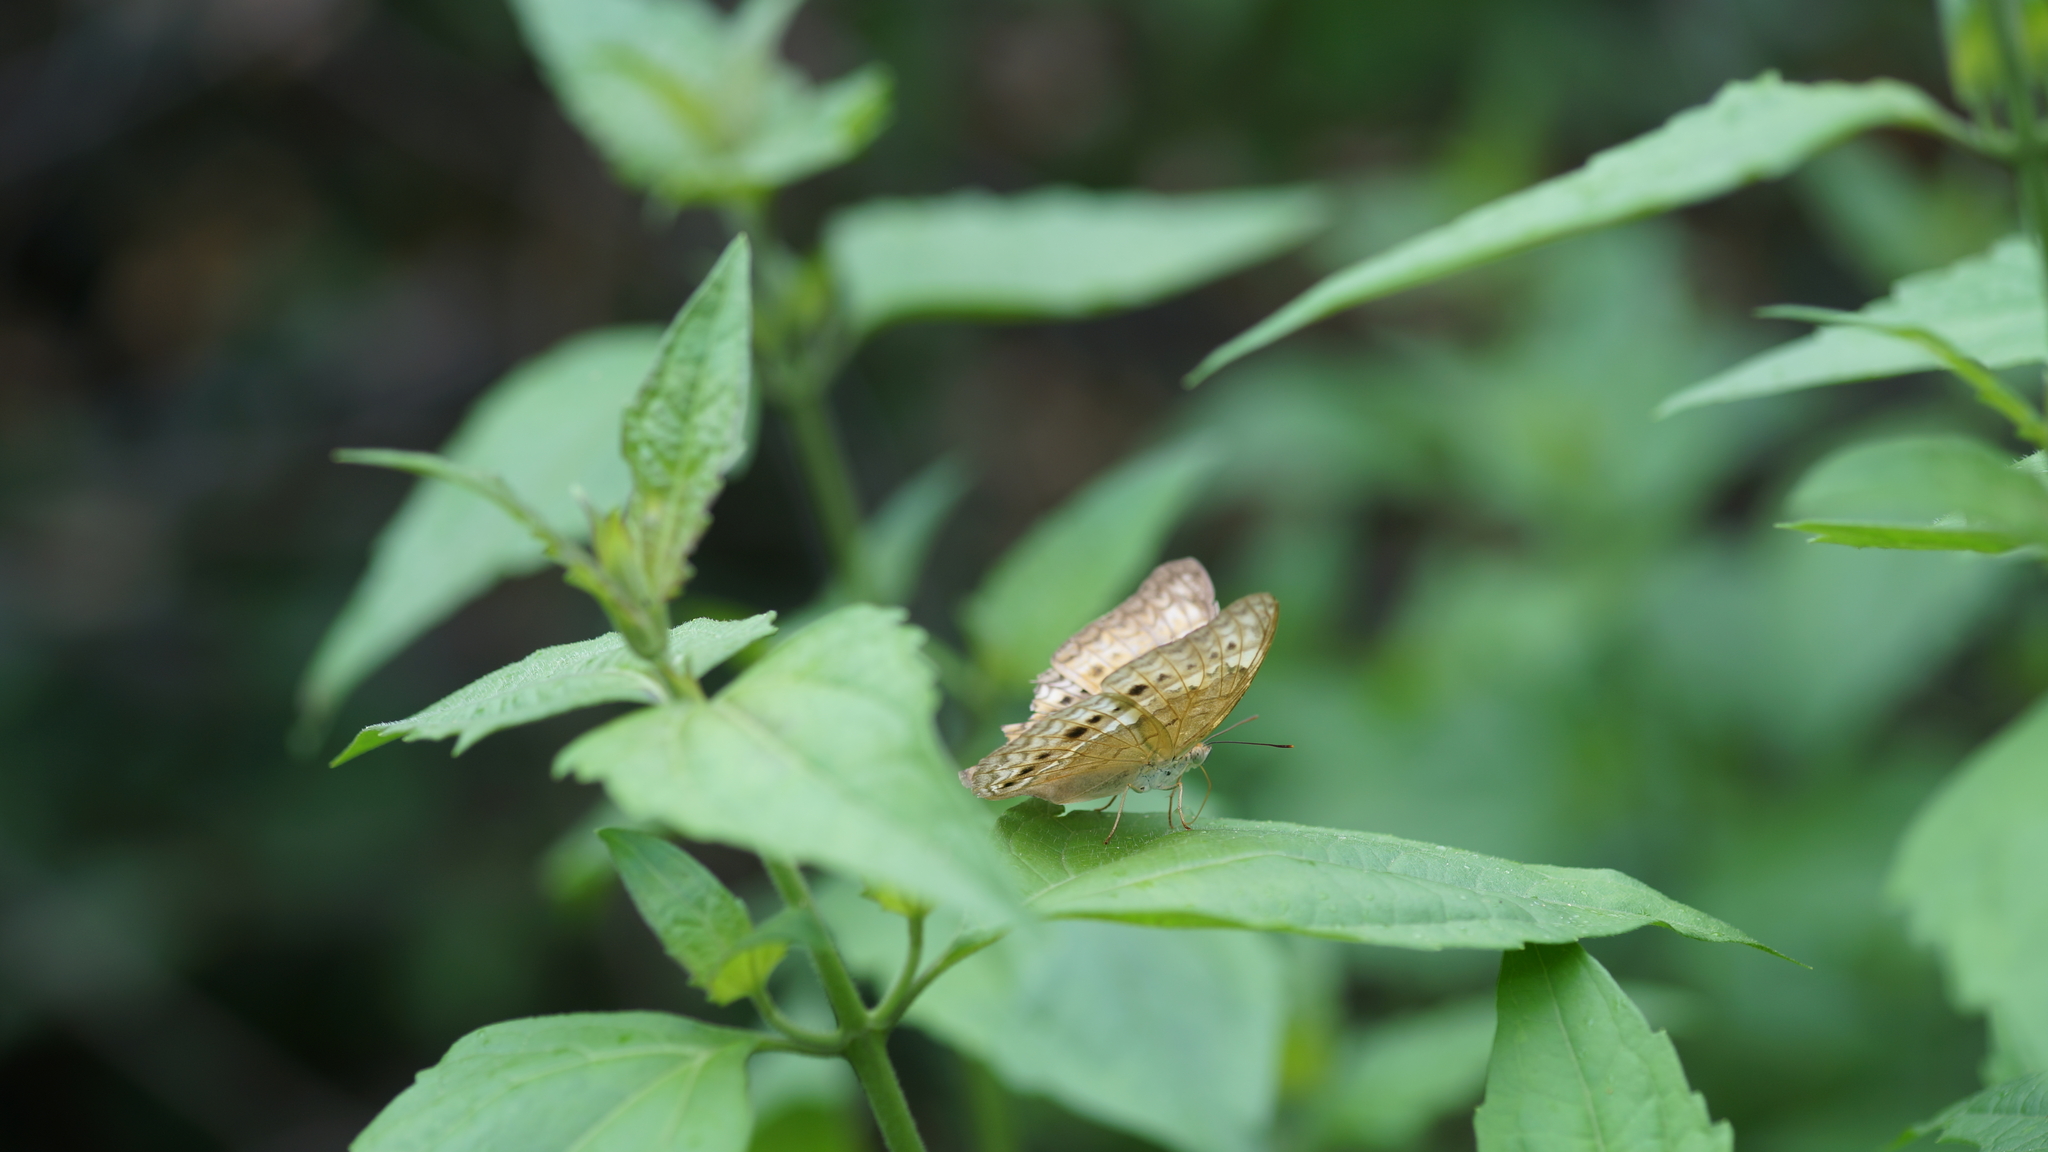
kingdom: Animalia
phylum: Arthropoda
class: Insecta
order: Lepidoptera
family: Nymphalidae
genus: Junonia
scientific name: Junonia atlites
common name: Grey pansy
